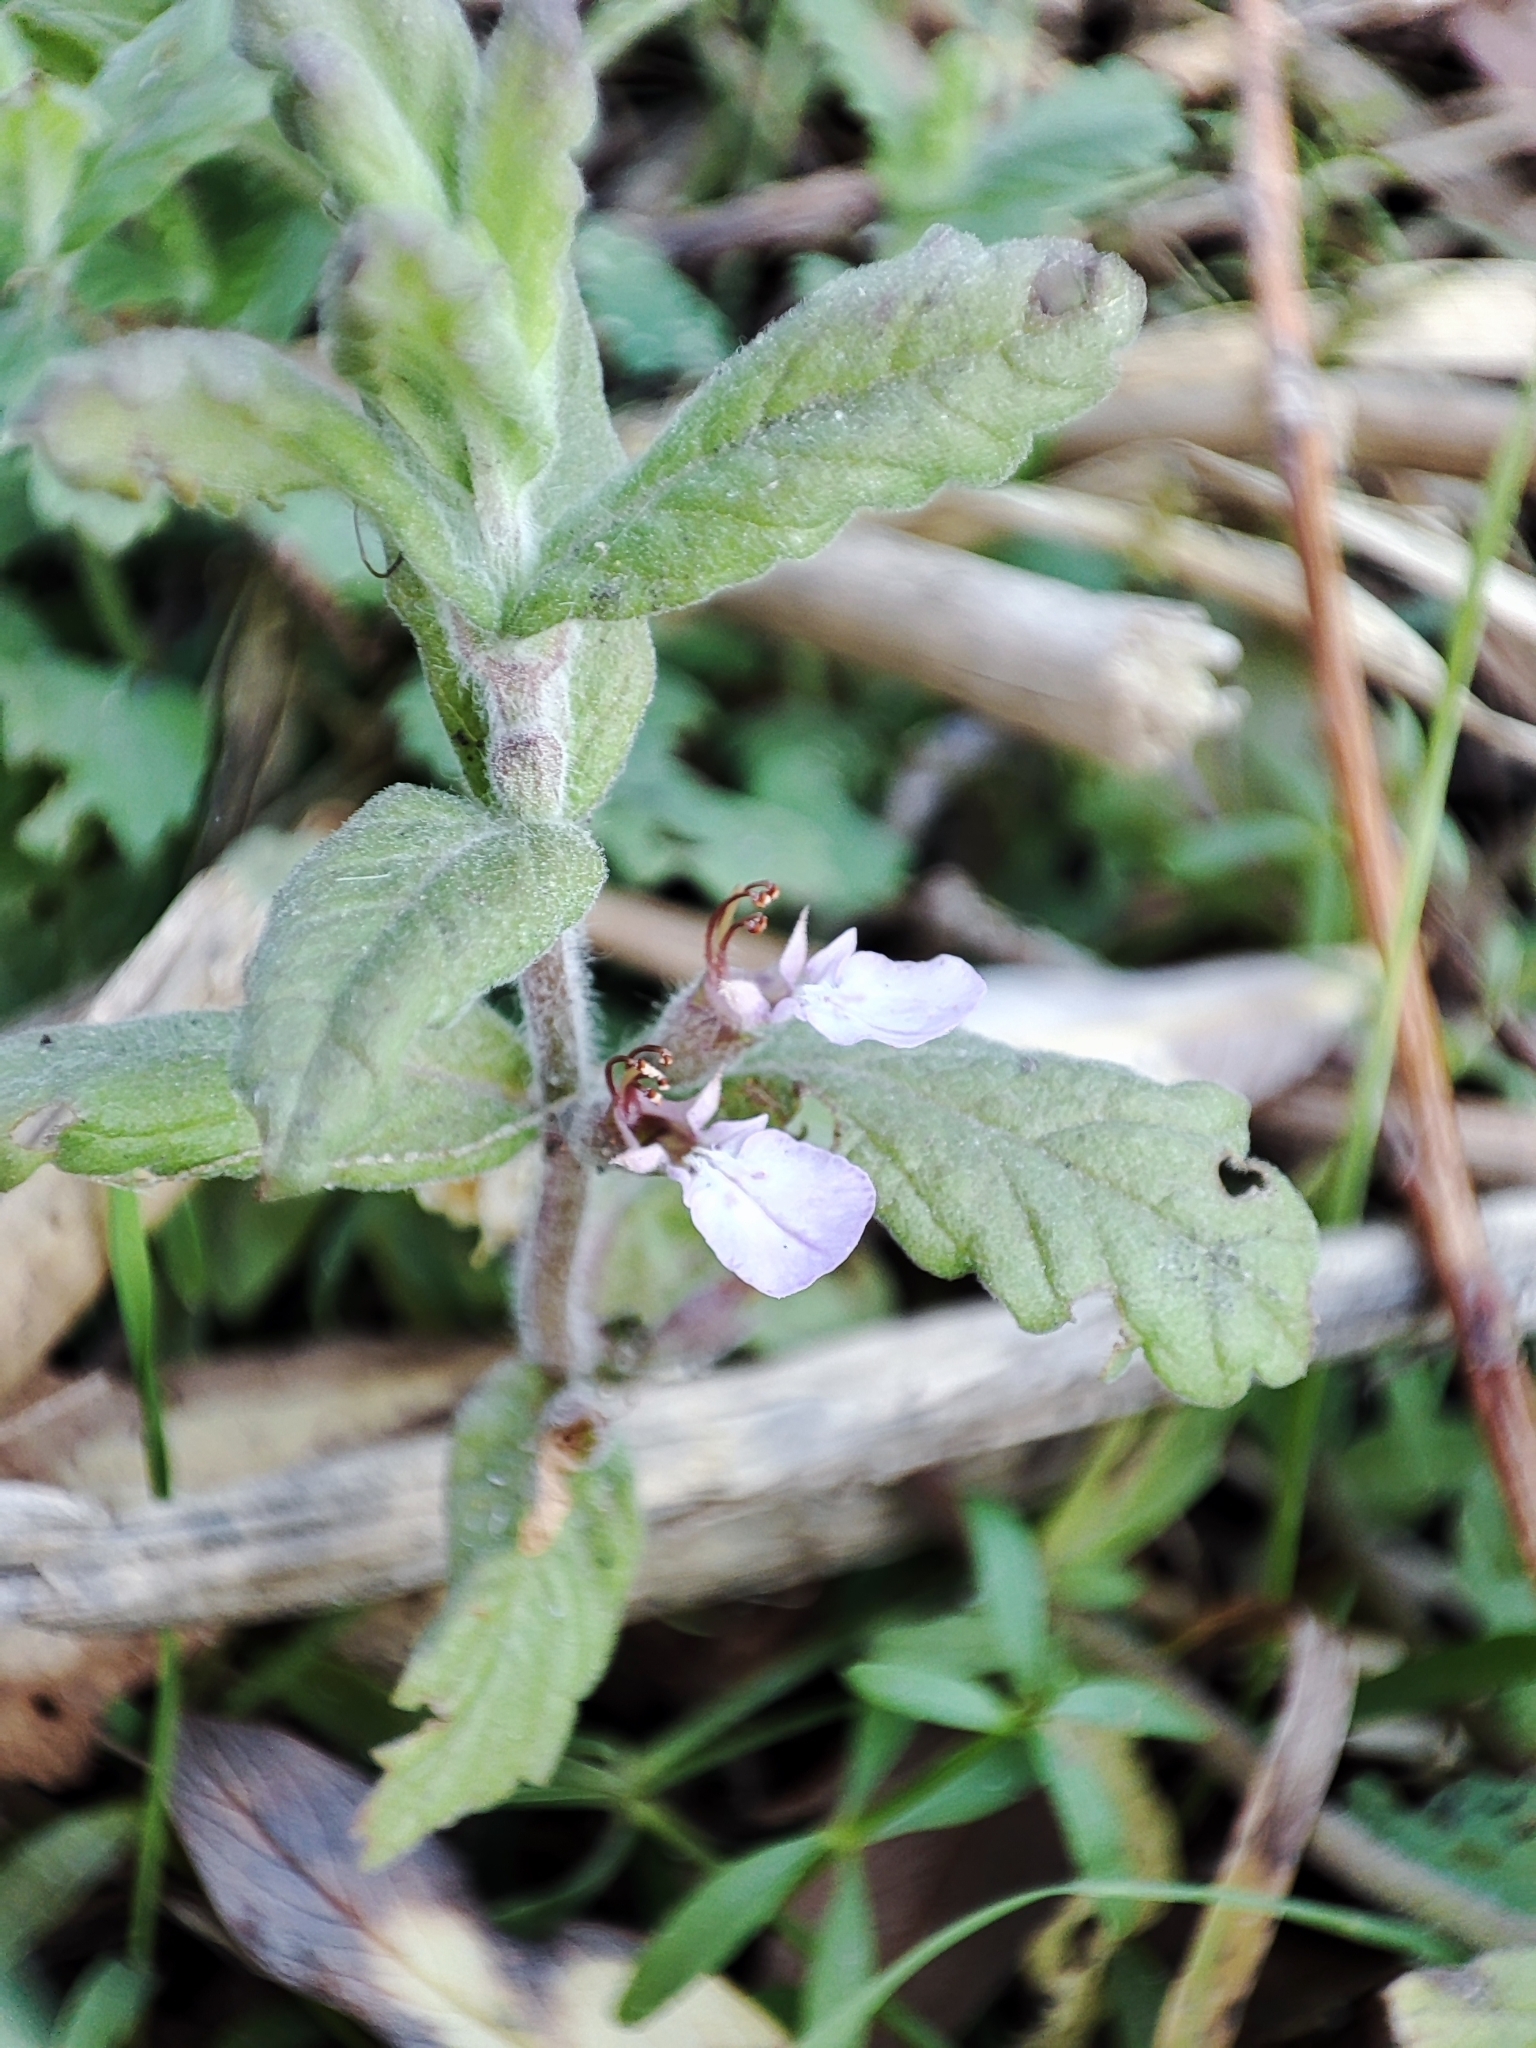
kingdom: Plantae
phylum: Tracheophyta
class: Magnoliopsida
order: Lamiales
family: Lamiaceae
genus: Teucrium
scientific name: Teucrium scordium
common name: Water germander
